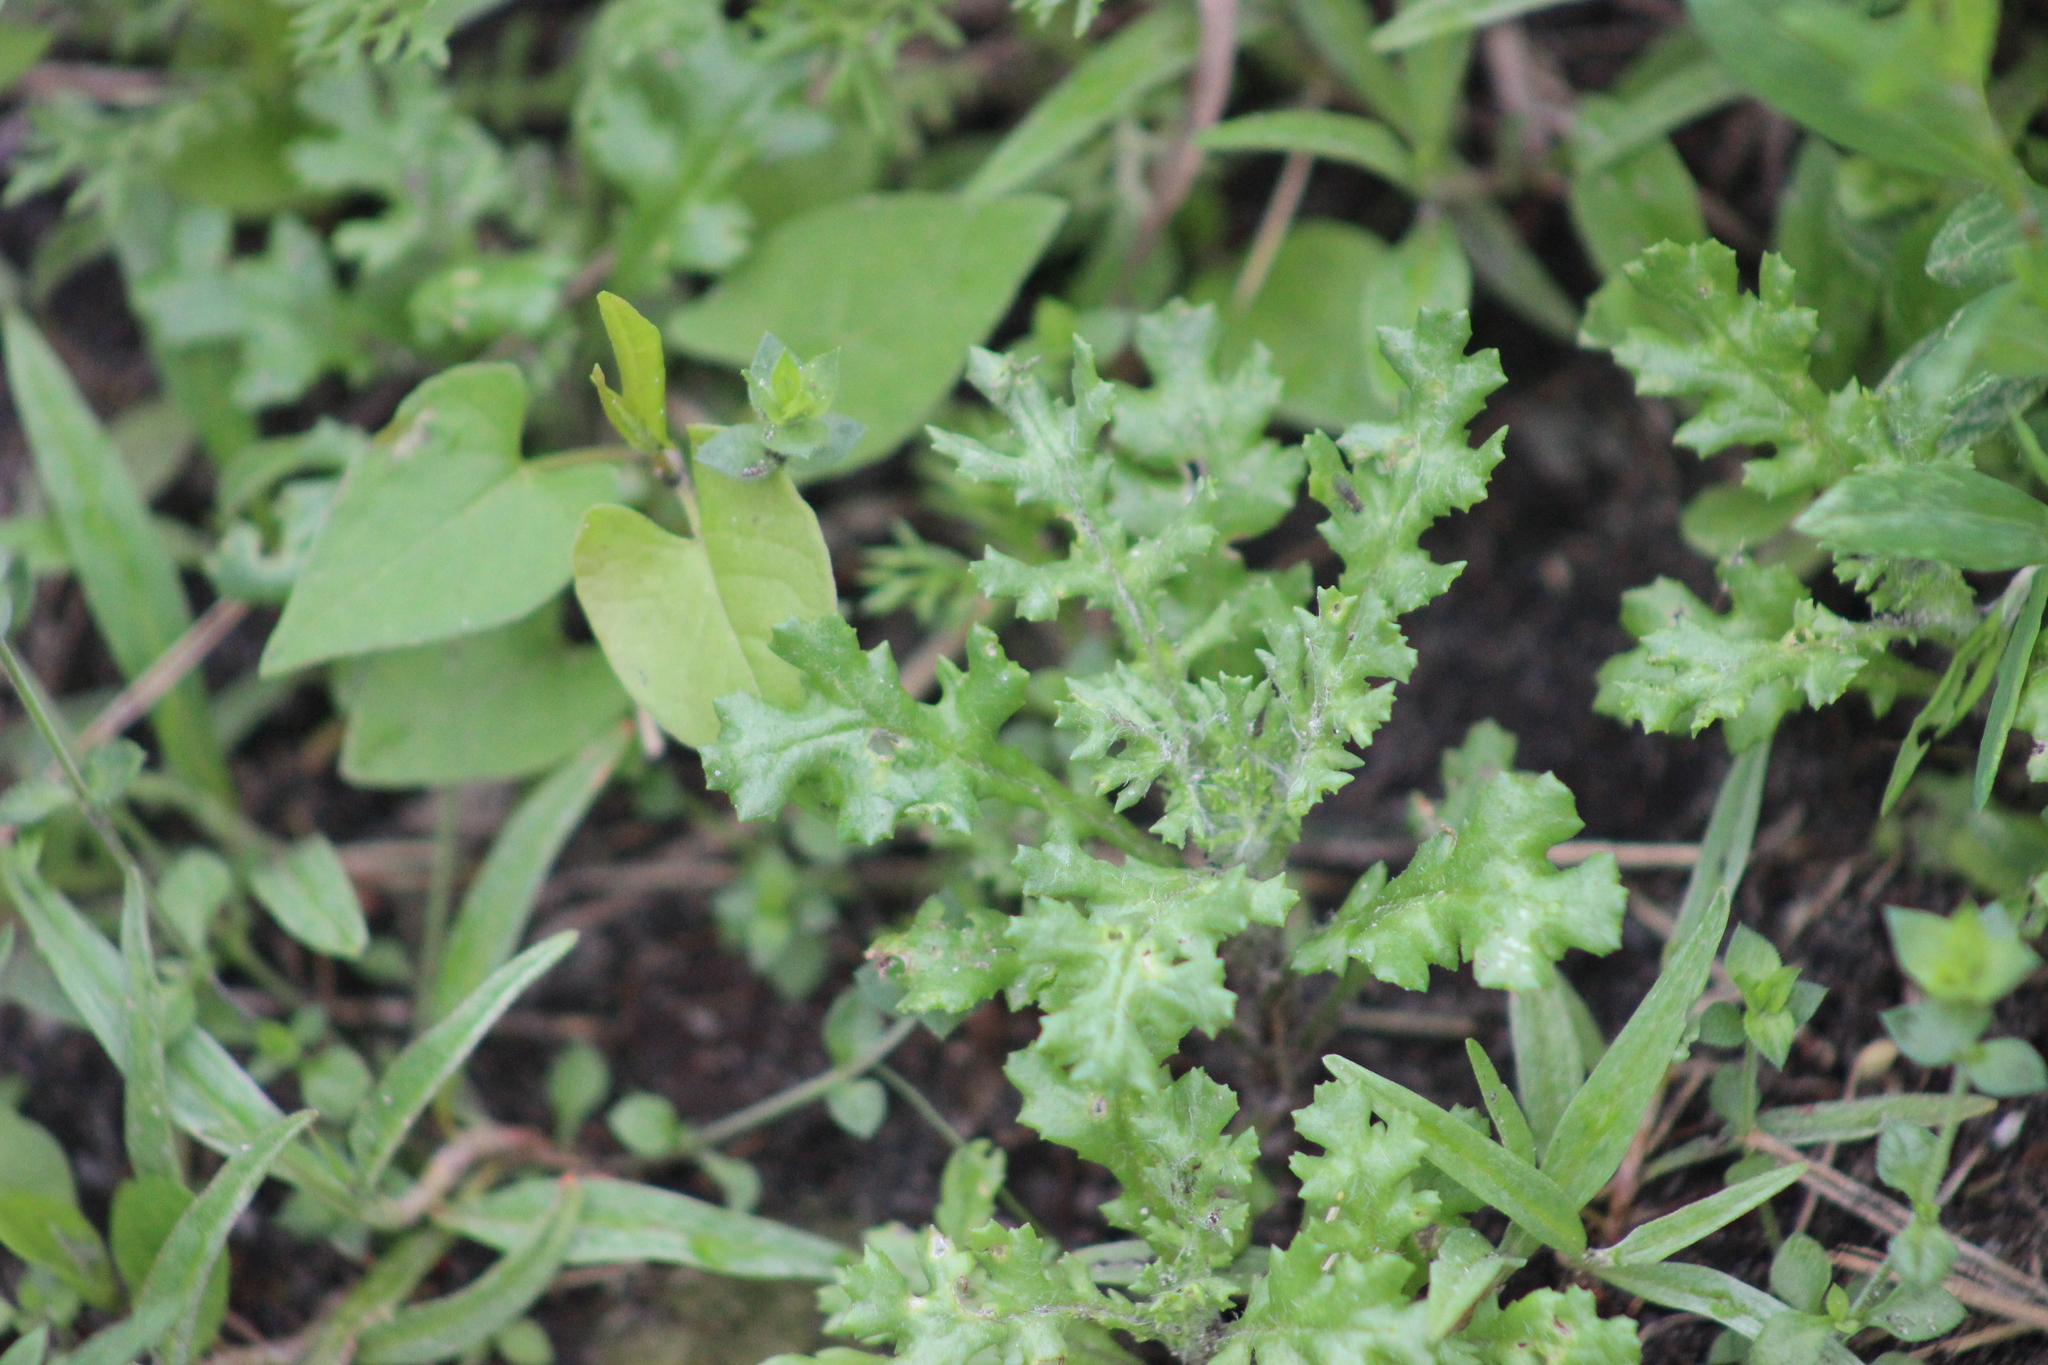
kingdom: Plantae
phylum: Tracheophyta
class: Magnoliopsida
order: Asterales
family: Asteraceae
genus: Senecio
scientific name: Senecio vulgaris
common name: Old-man-in-the-spring
